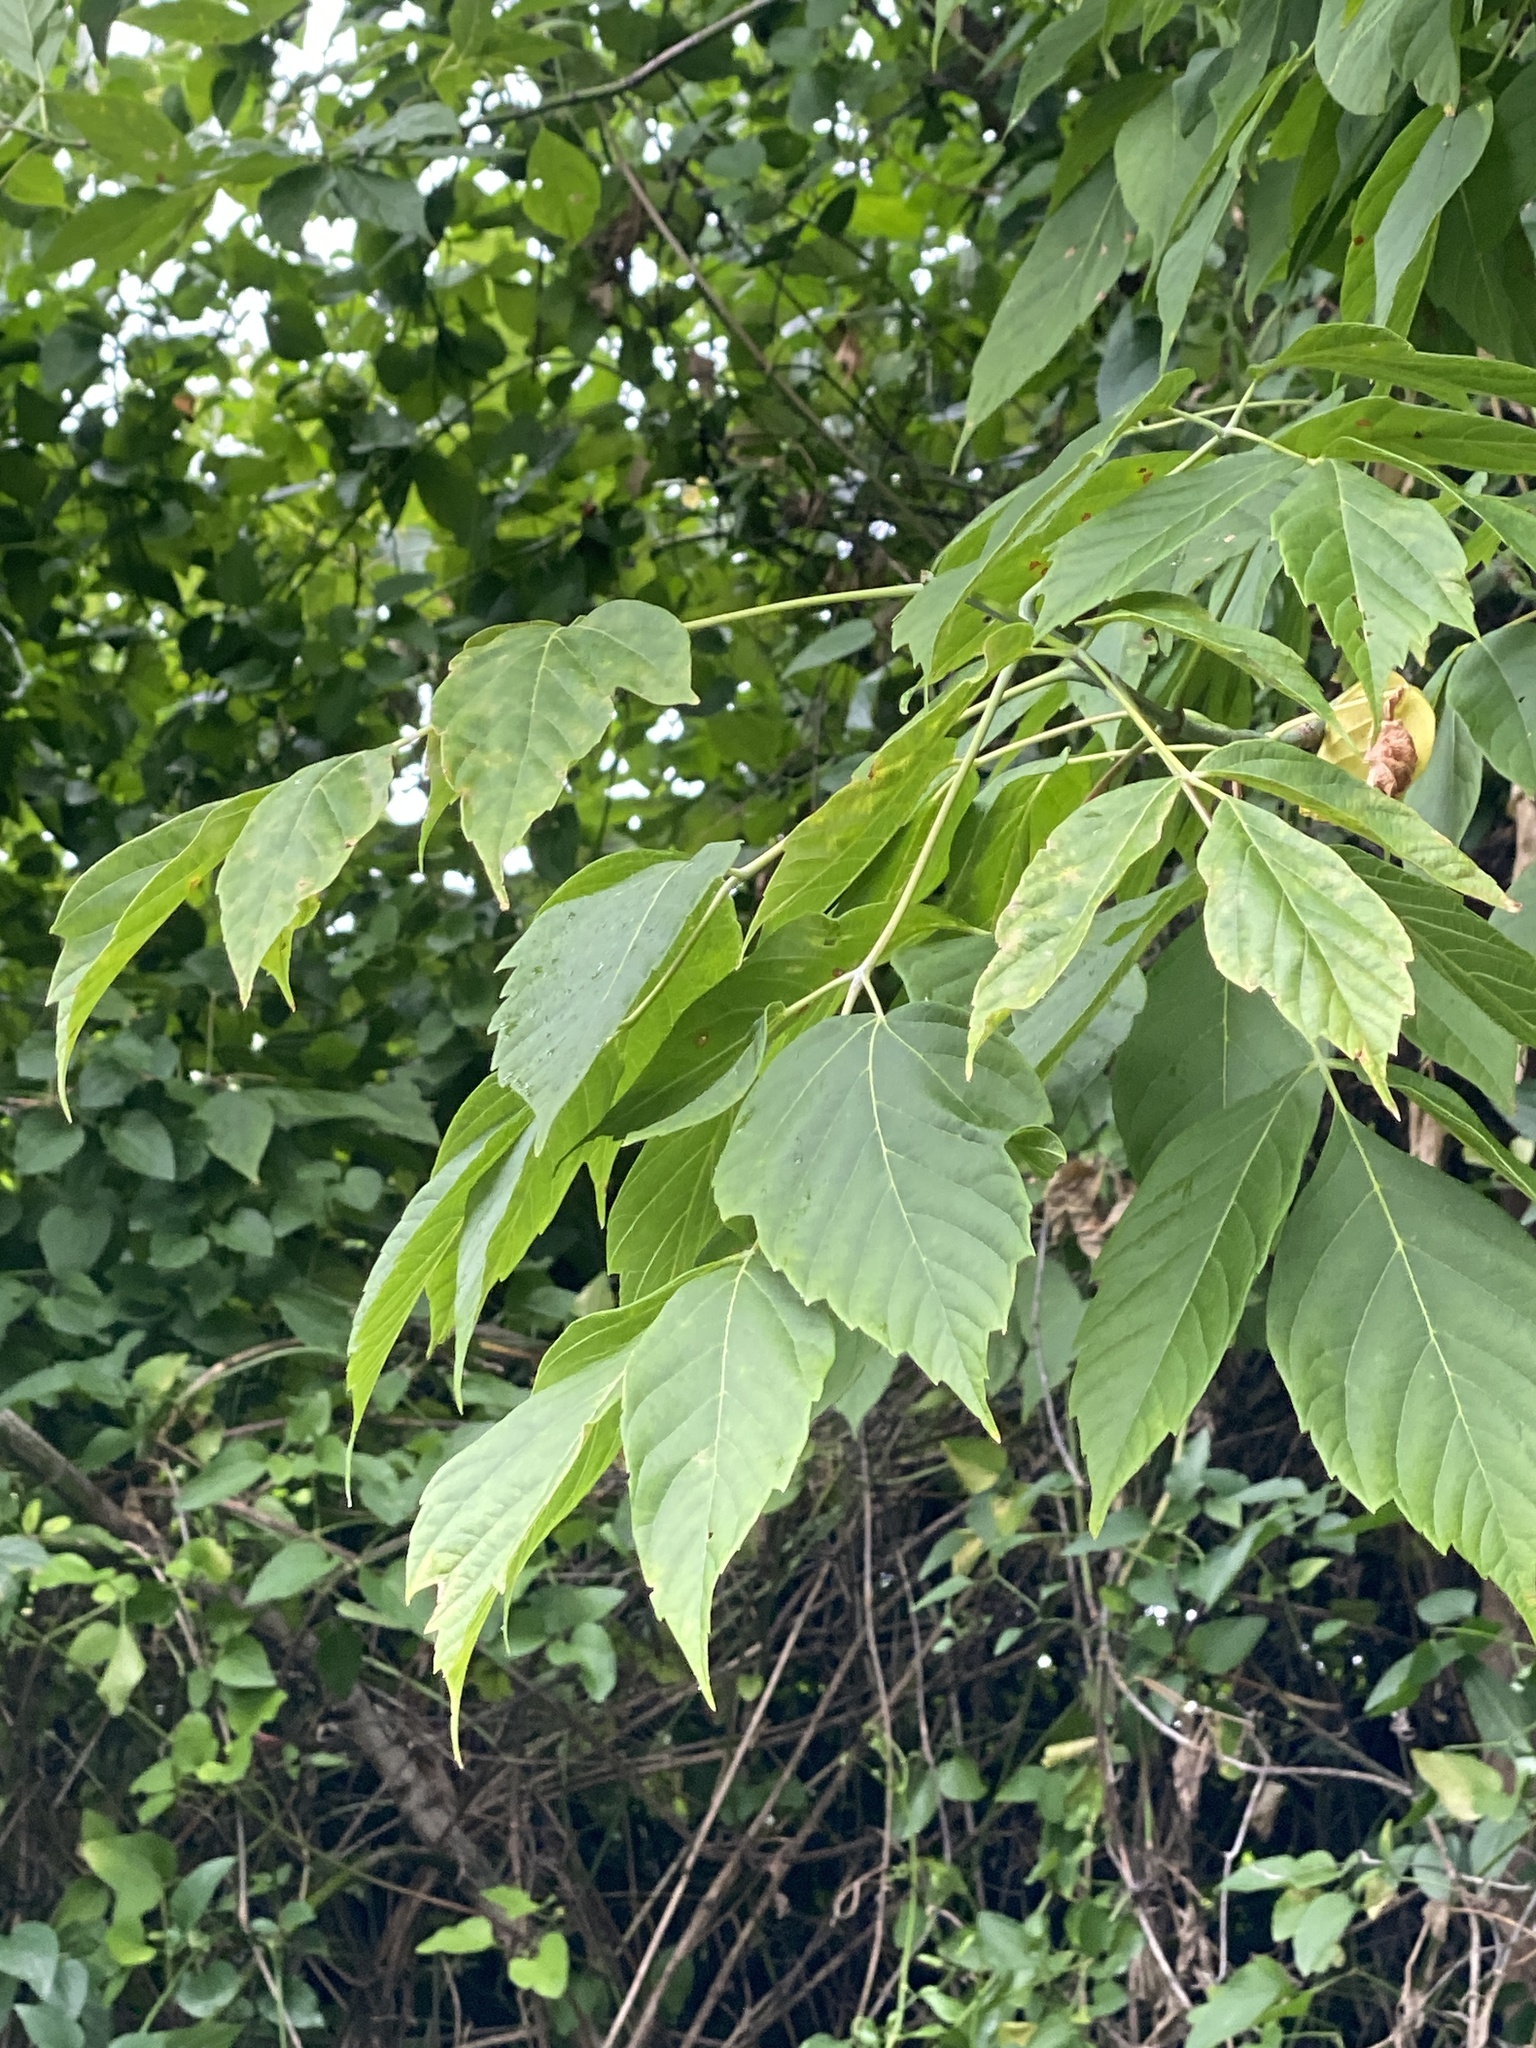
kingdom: Plantae
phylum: Tracheophyta
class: Magnoliopsida
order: Sapindales
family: Sapindaceae
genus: Acer
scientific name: Acer negundo
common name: Ashleaf maple
